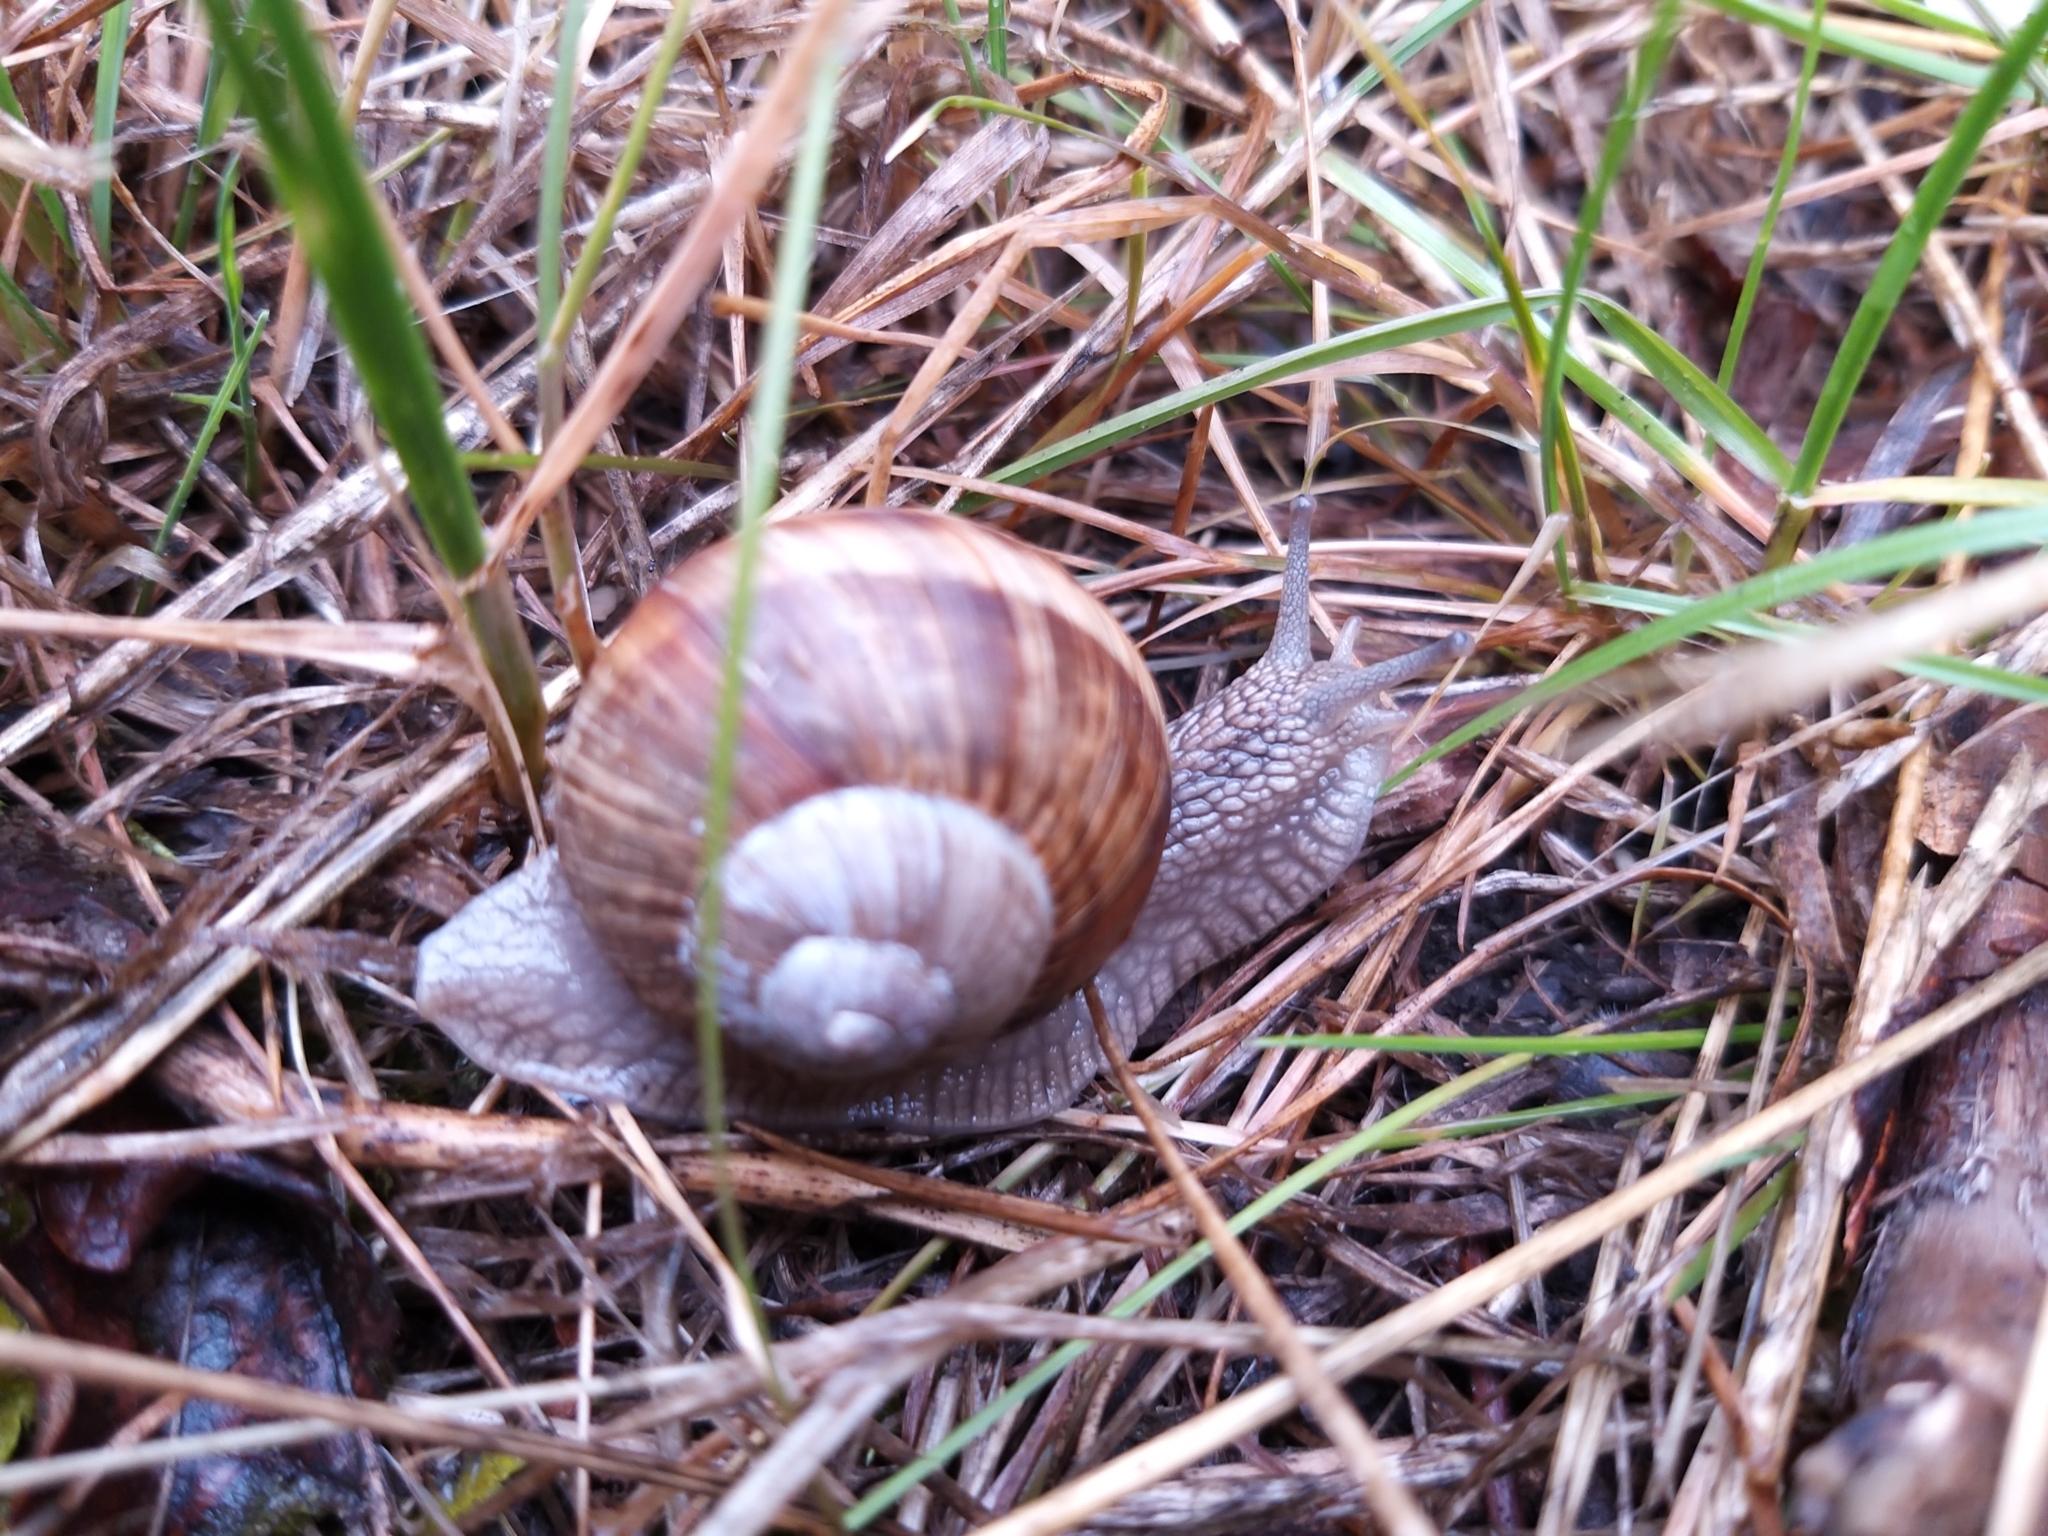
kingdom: Animalia
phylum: Mollusca
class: Gastropoda
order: Stylommatophora
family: Helicidae
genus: Helix
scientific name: Helix pomatia
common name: Roman snail
